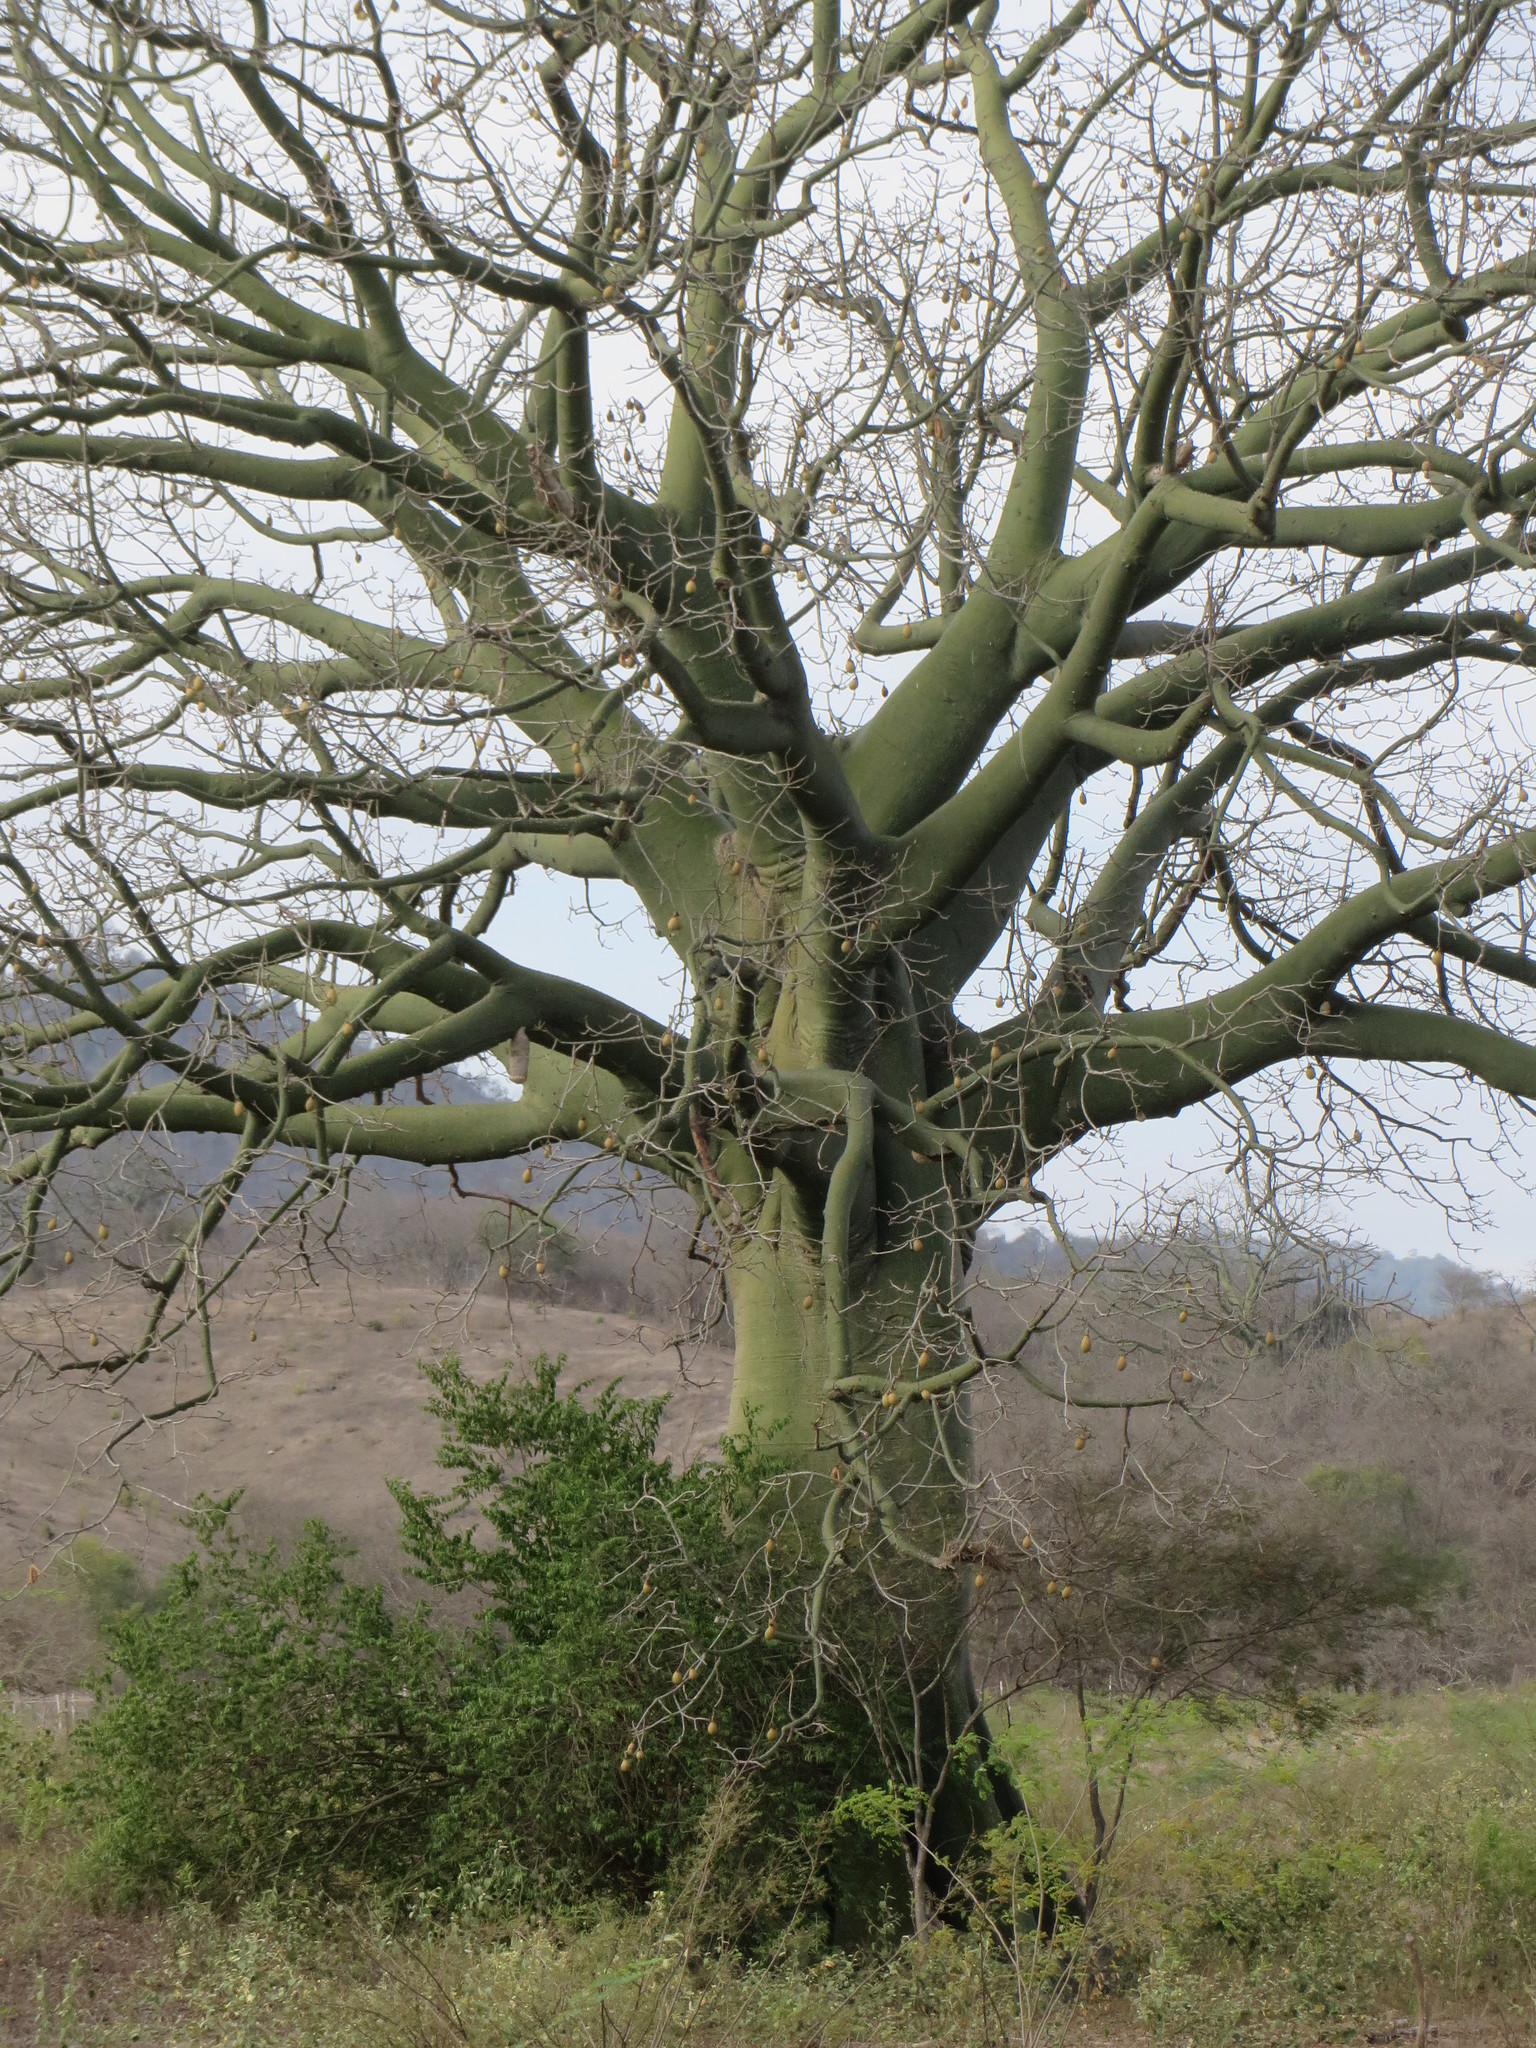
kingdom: Plantae
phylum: Tracheophyta
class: Magnoliopsida
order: Malvales
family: Malvaceae
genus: Ceiba
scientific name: Ceiba trischistandra
